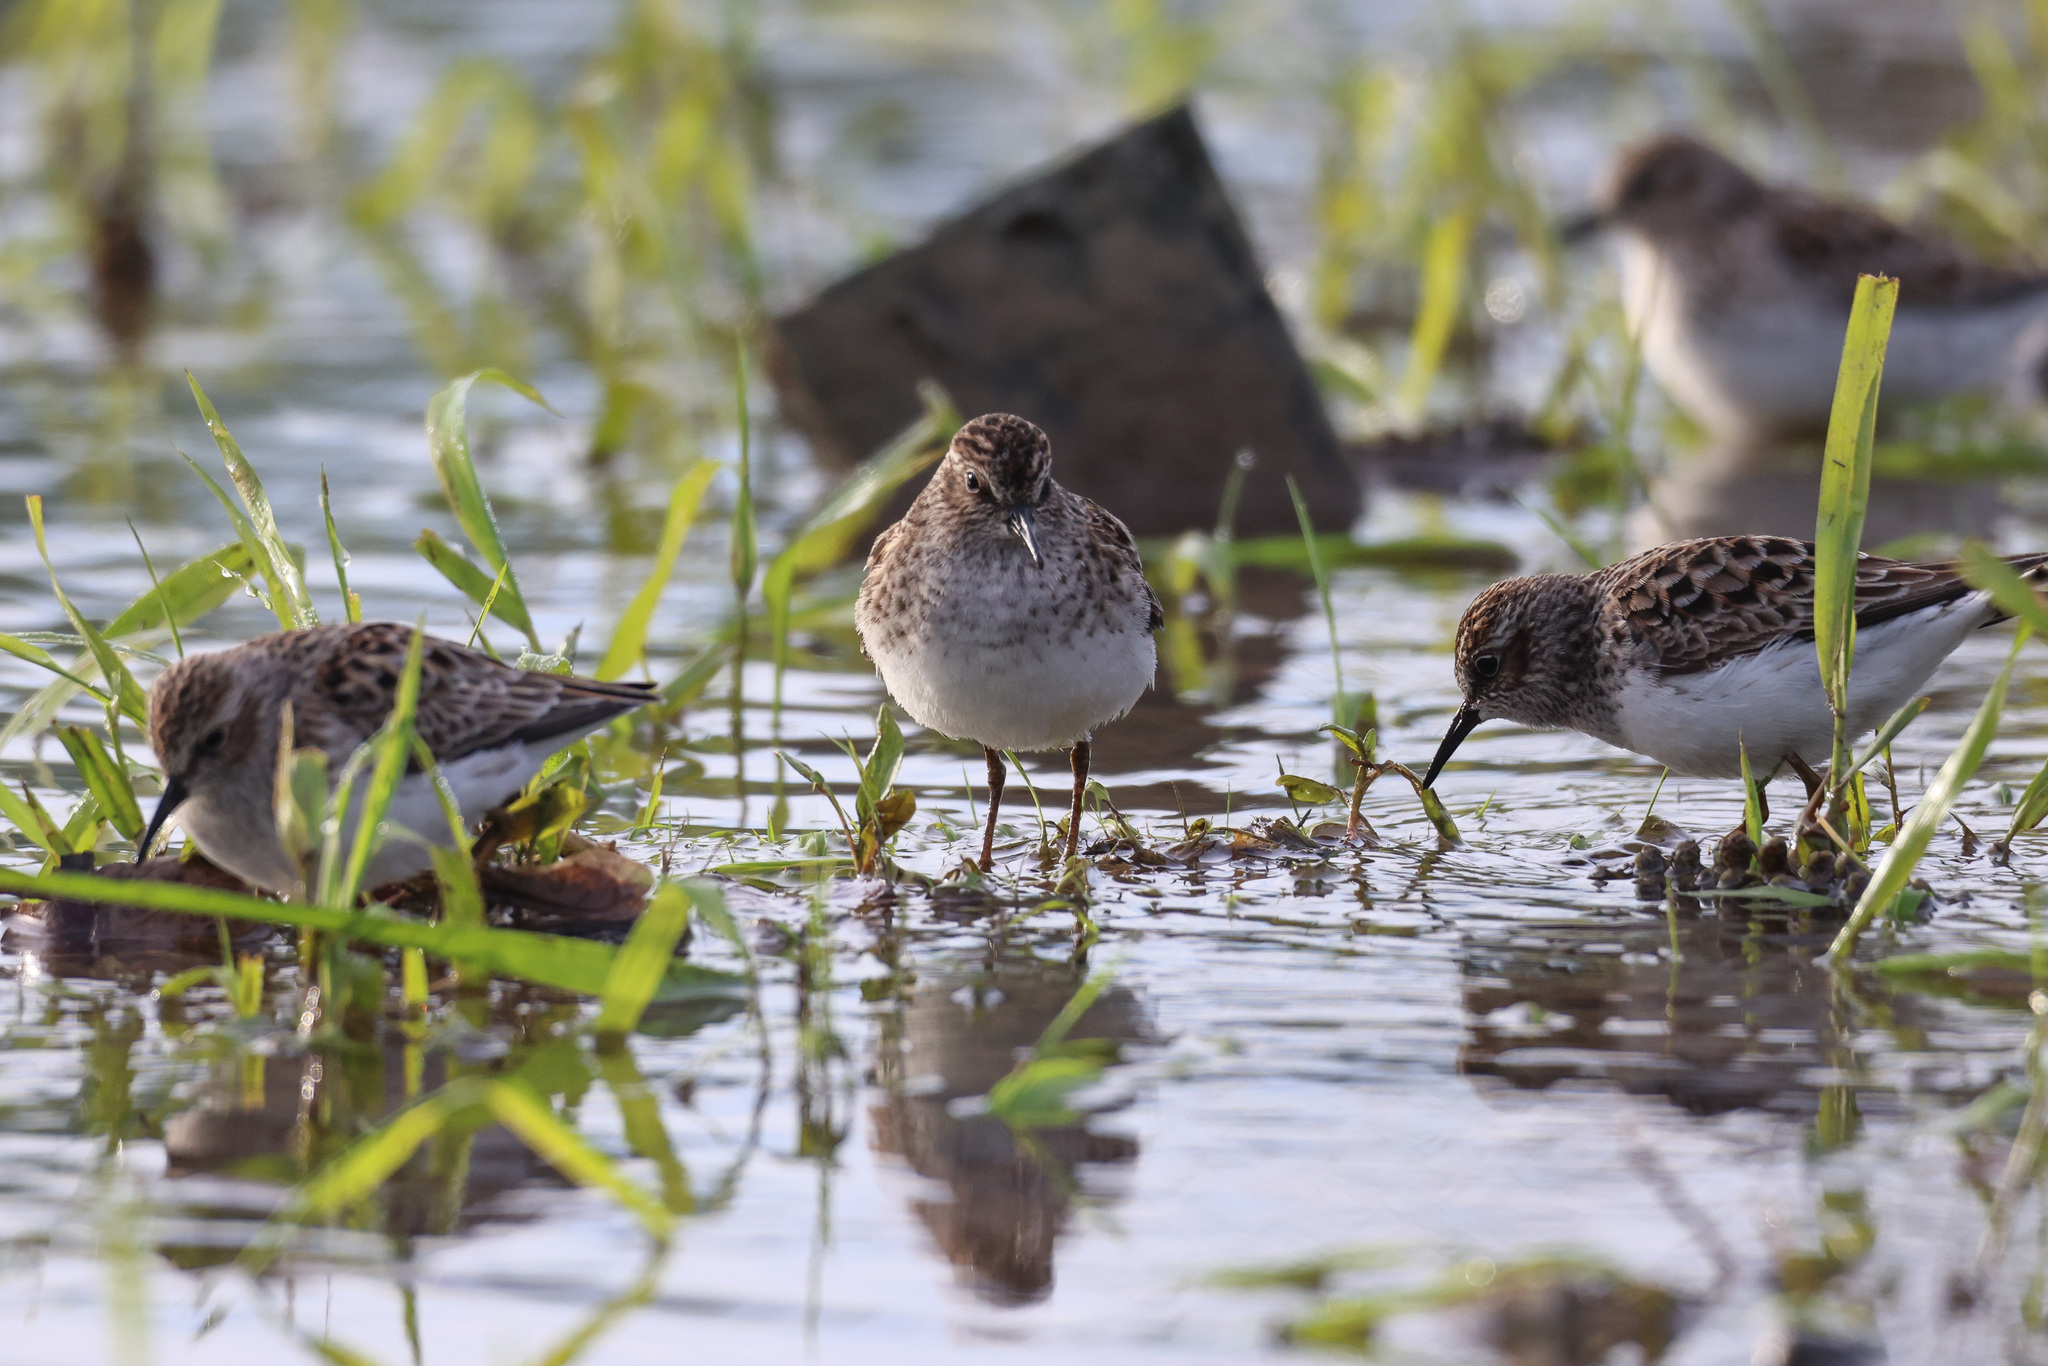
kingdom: Animalia
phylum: Chordata
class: Aves
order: Charadriiformes
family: Scolopacidae
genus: Calidris
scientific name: Calidris minutilla
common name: Least sandpiper
